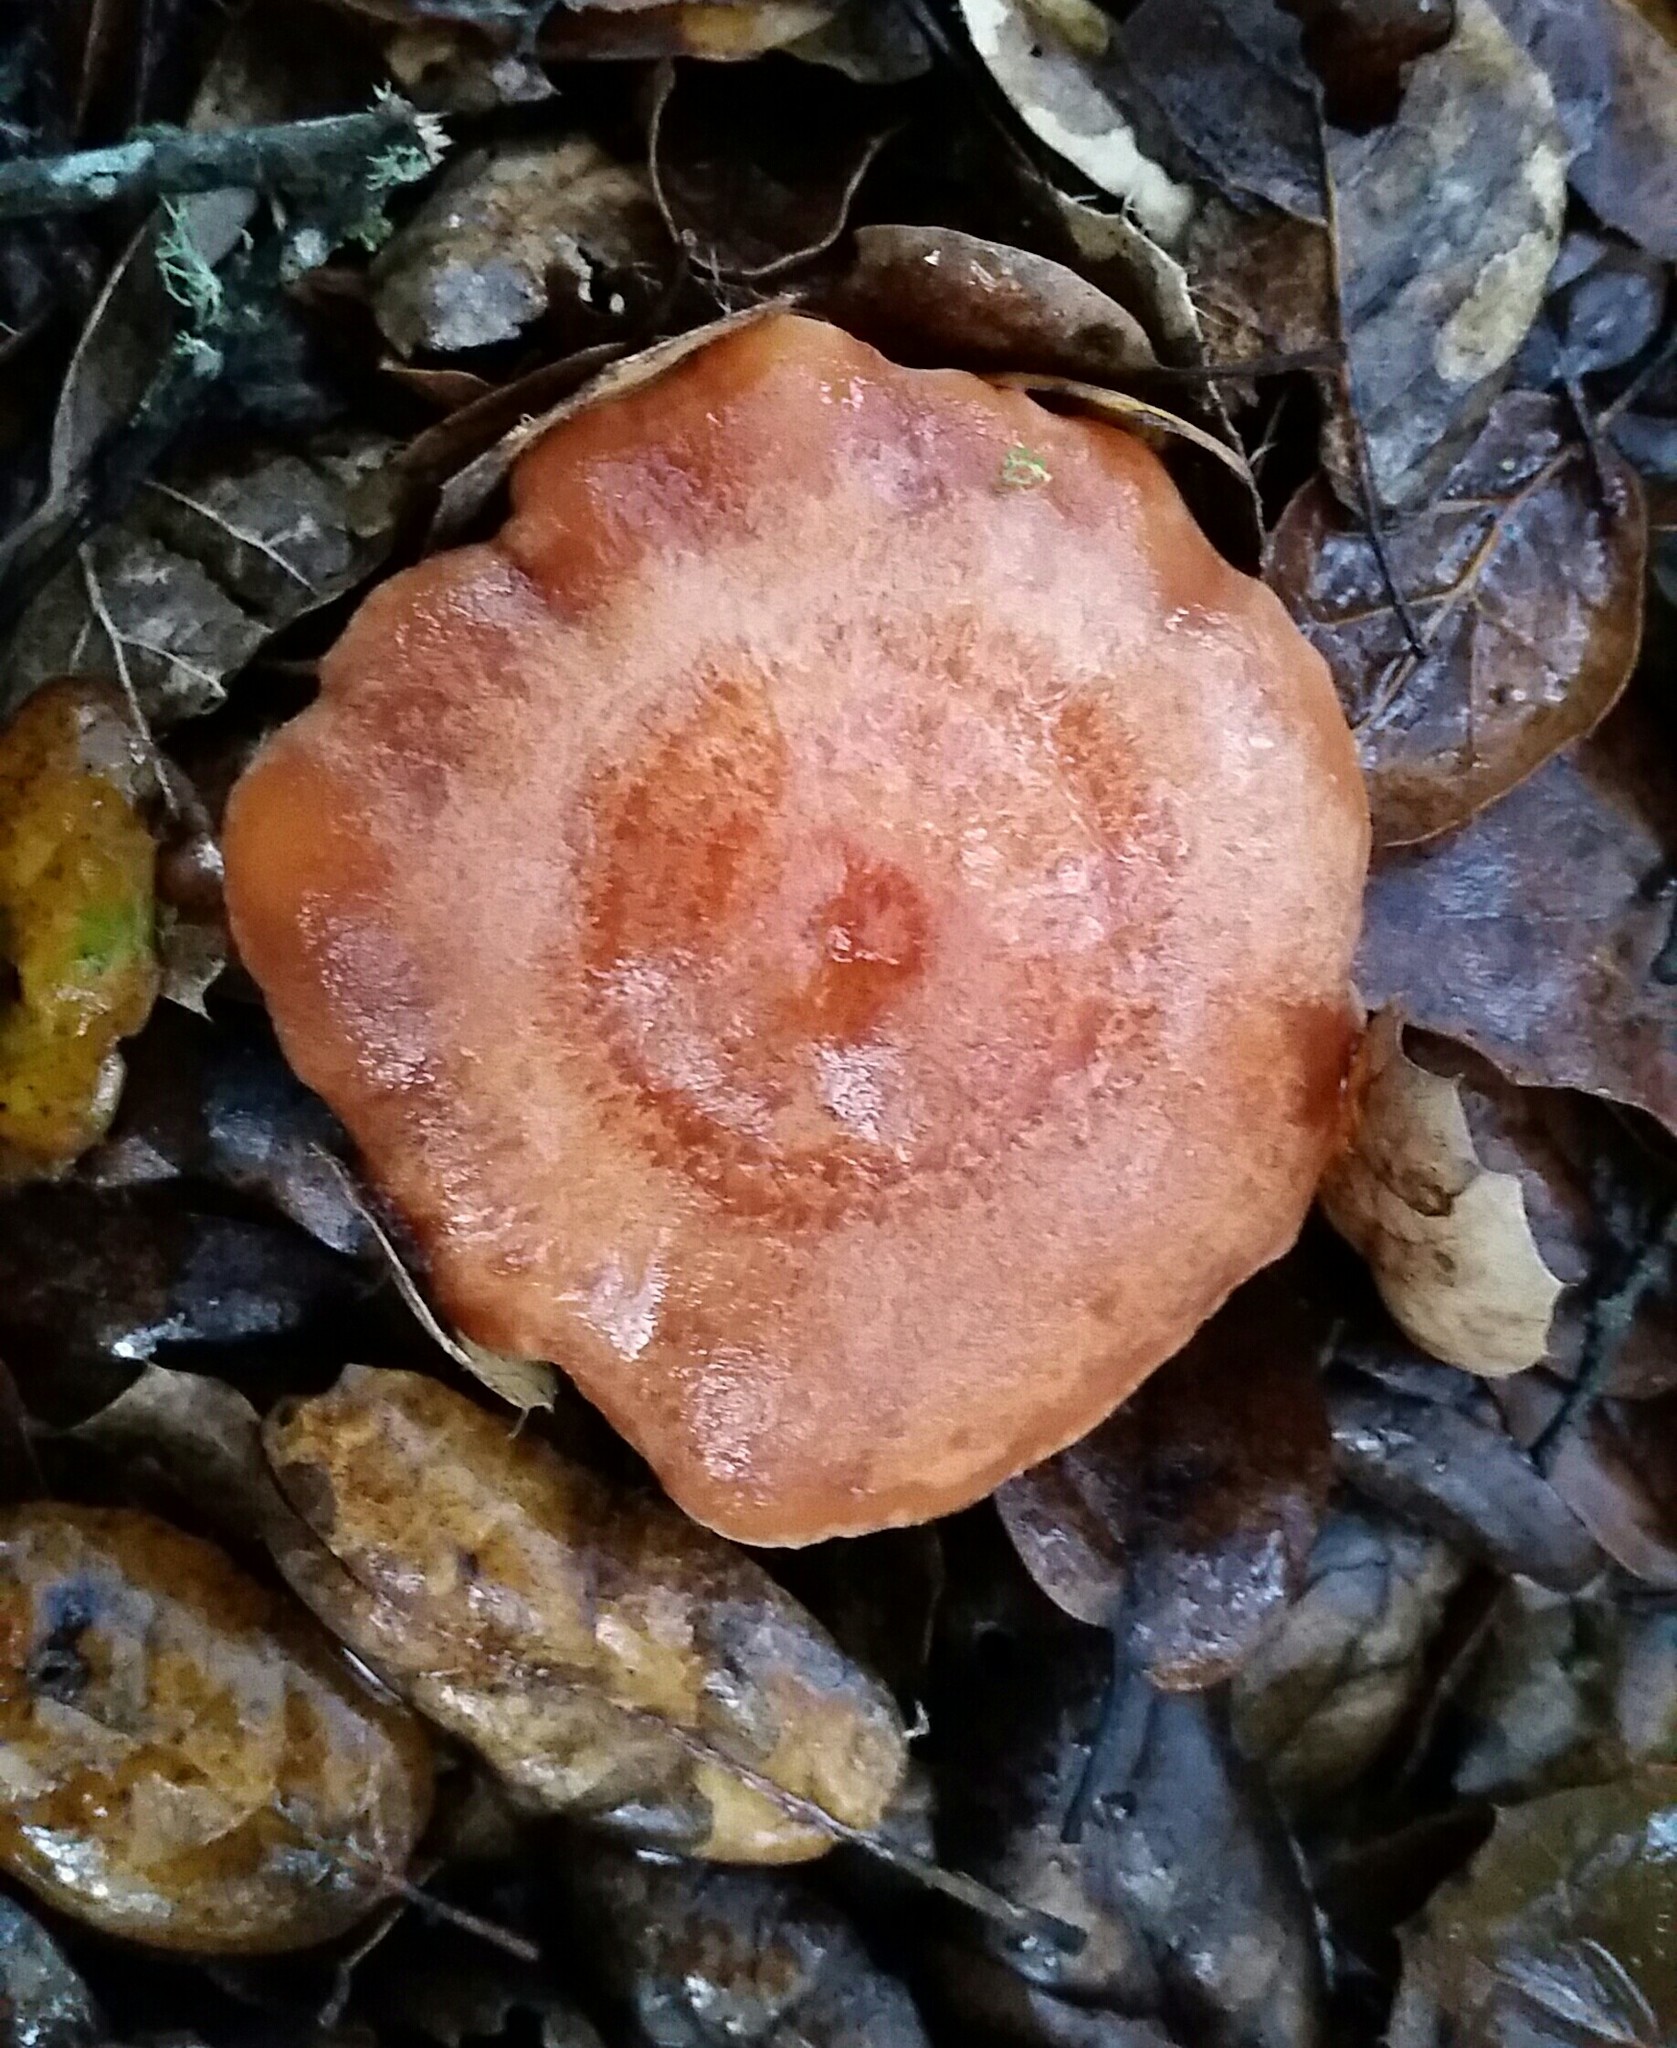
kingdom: Fungi
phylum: Basidiomycota
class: Agaricomycetes
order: Russulales
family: Russulaceae
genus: Lactarius
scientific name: Lactarius xanthogalactus
